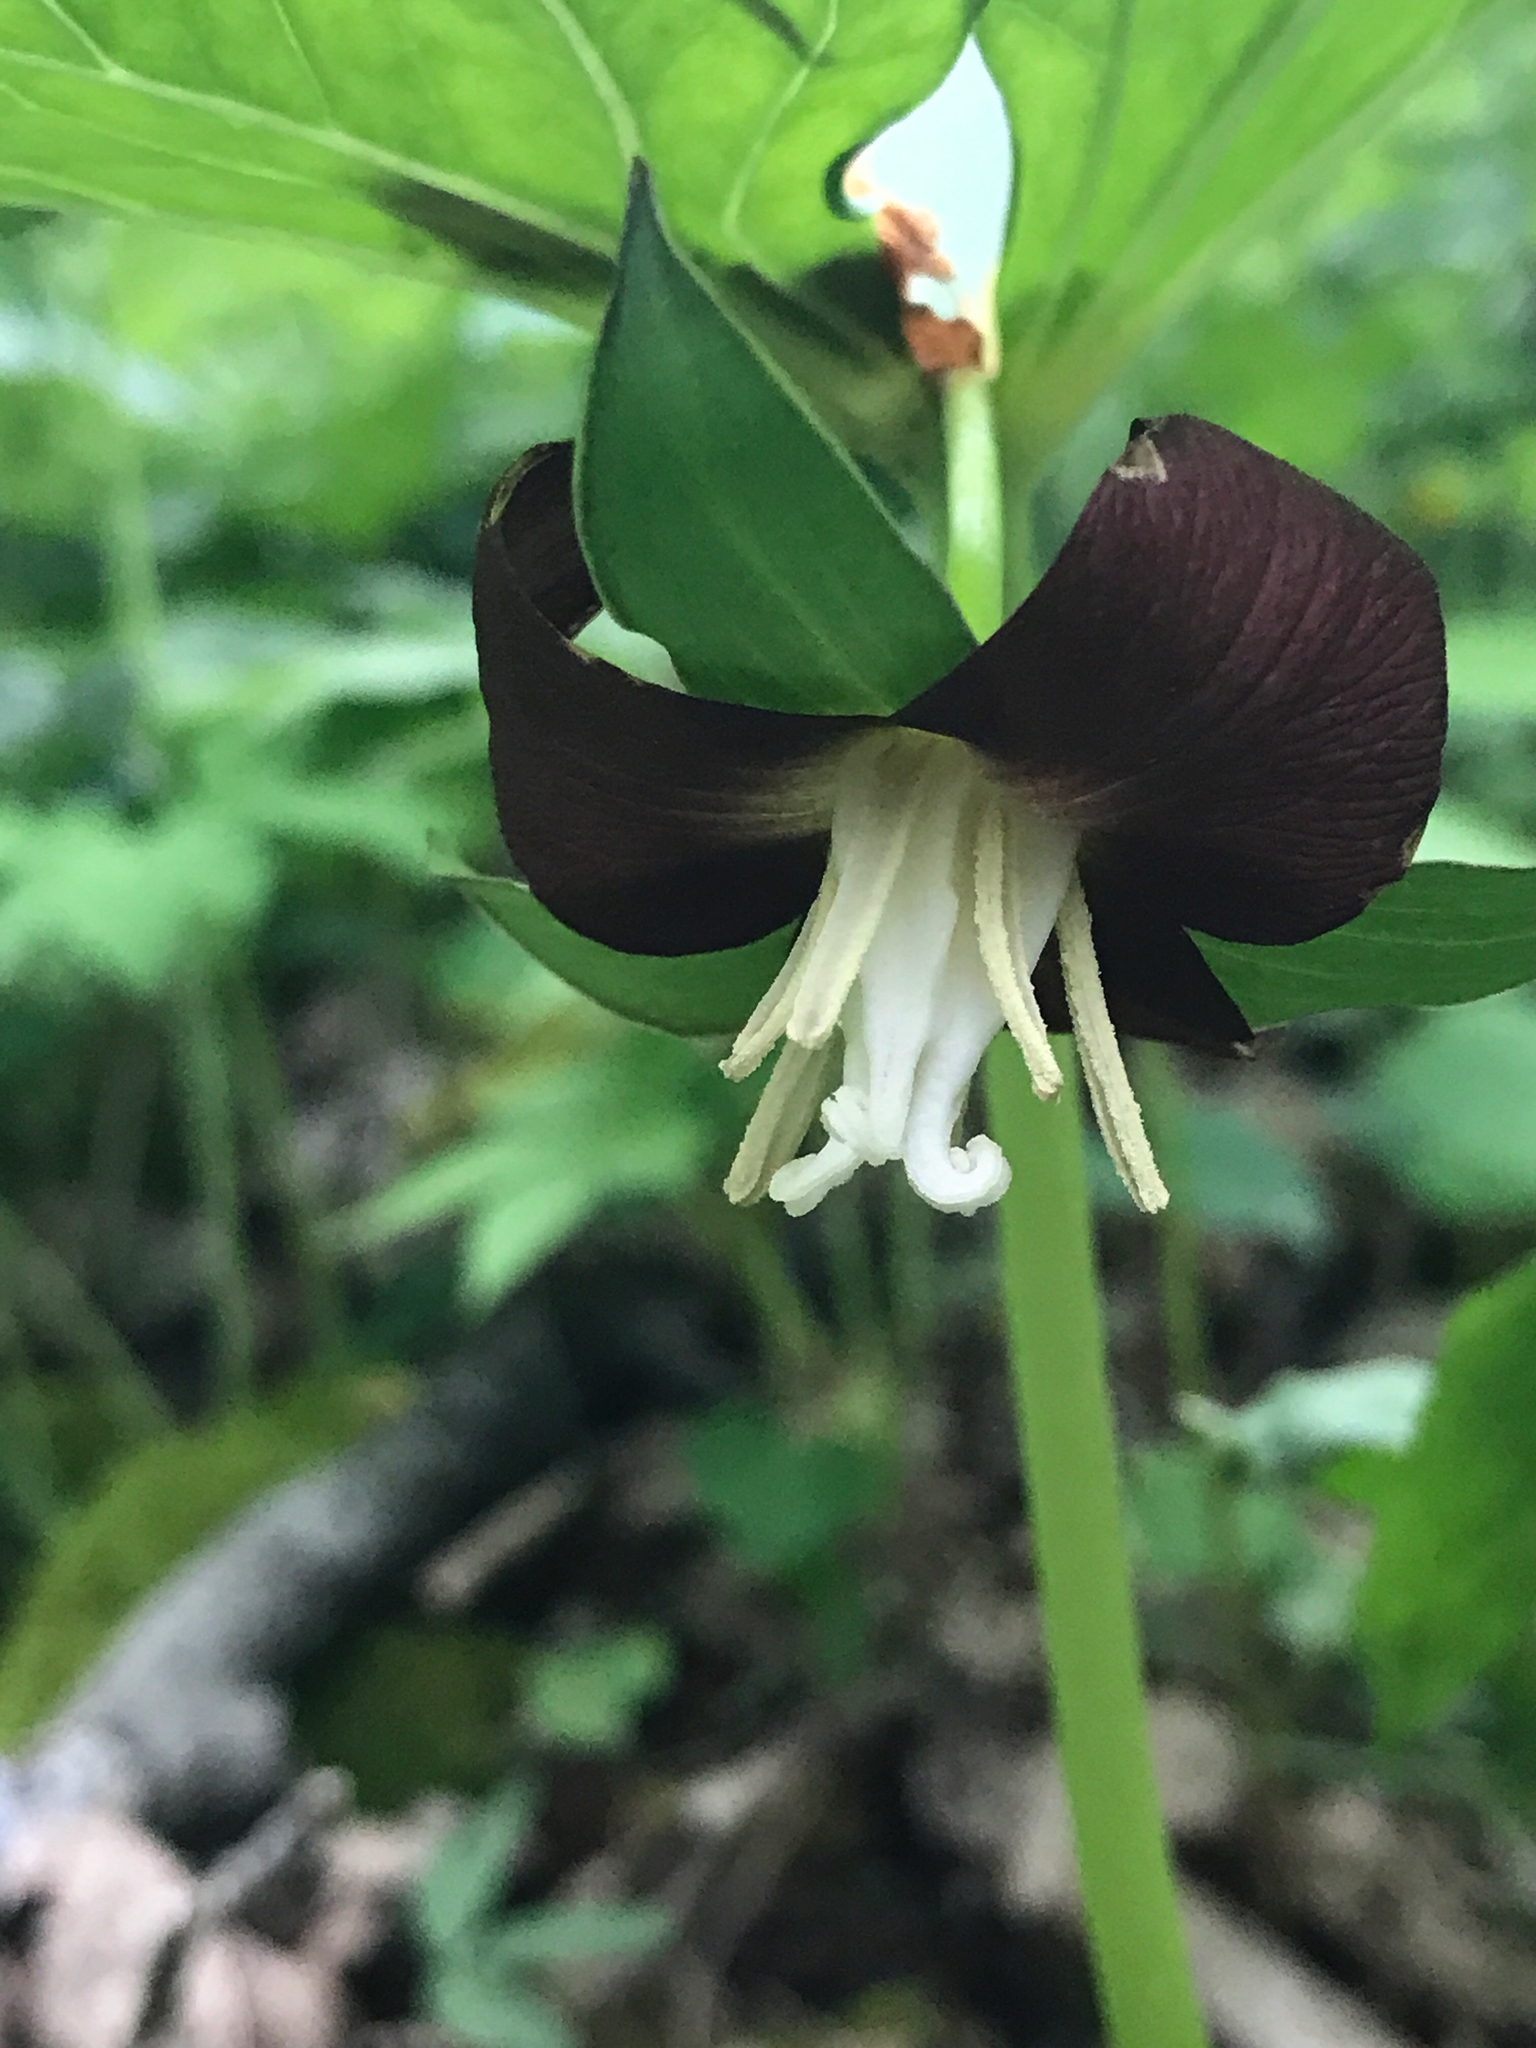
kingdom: Plantae
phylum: Tracheophyta
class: Liliopsida
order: Liliales
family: Melanthiaceae
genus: Trillium
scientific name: Trillium flexipes
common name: Drooping trillium
